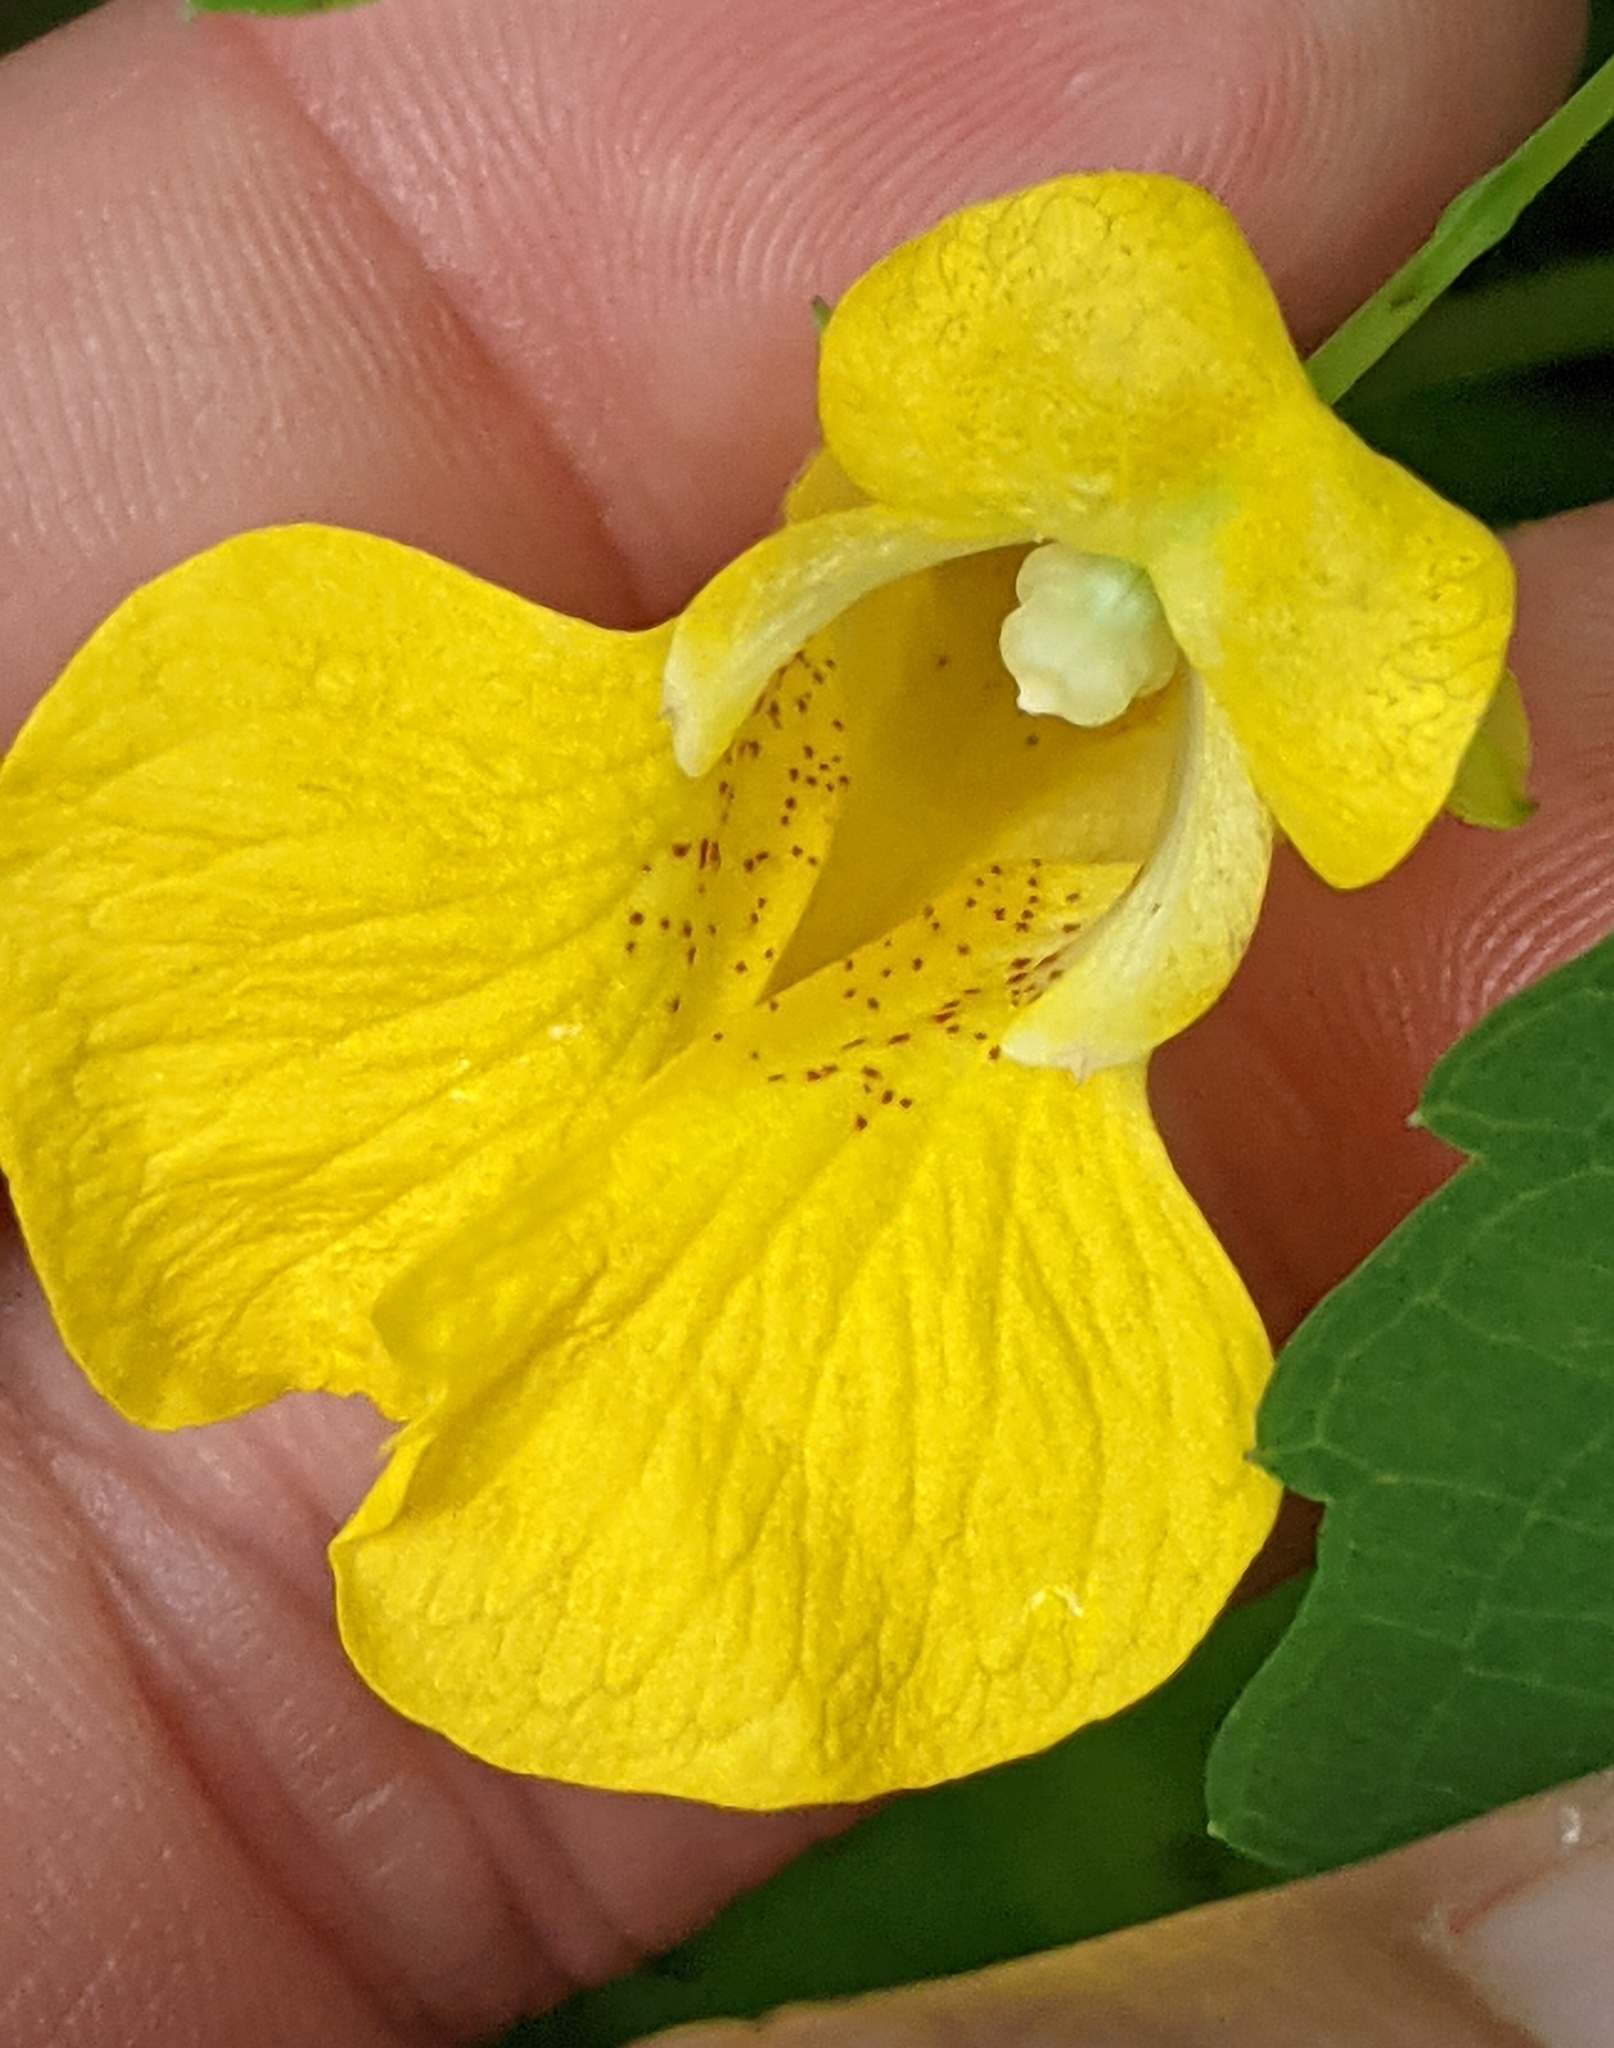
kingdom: Plantae
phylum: Tracheophyta
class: Magnoliopsida
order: Ericales
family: Balsaminaceae
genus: Impatiens
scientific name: Impatiens pallida
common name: Pale snapweed
